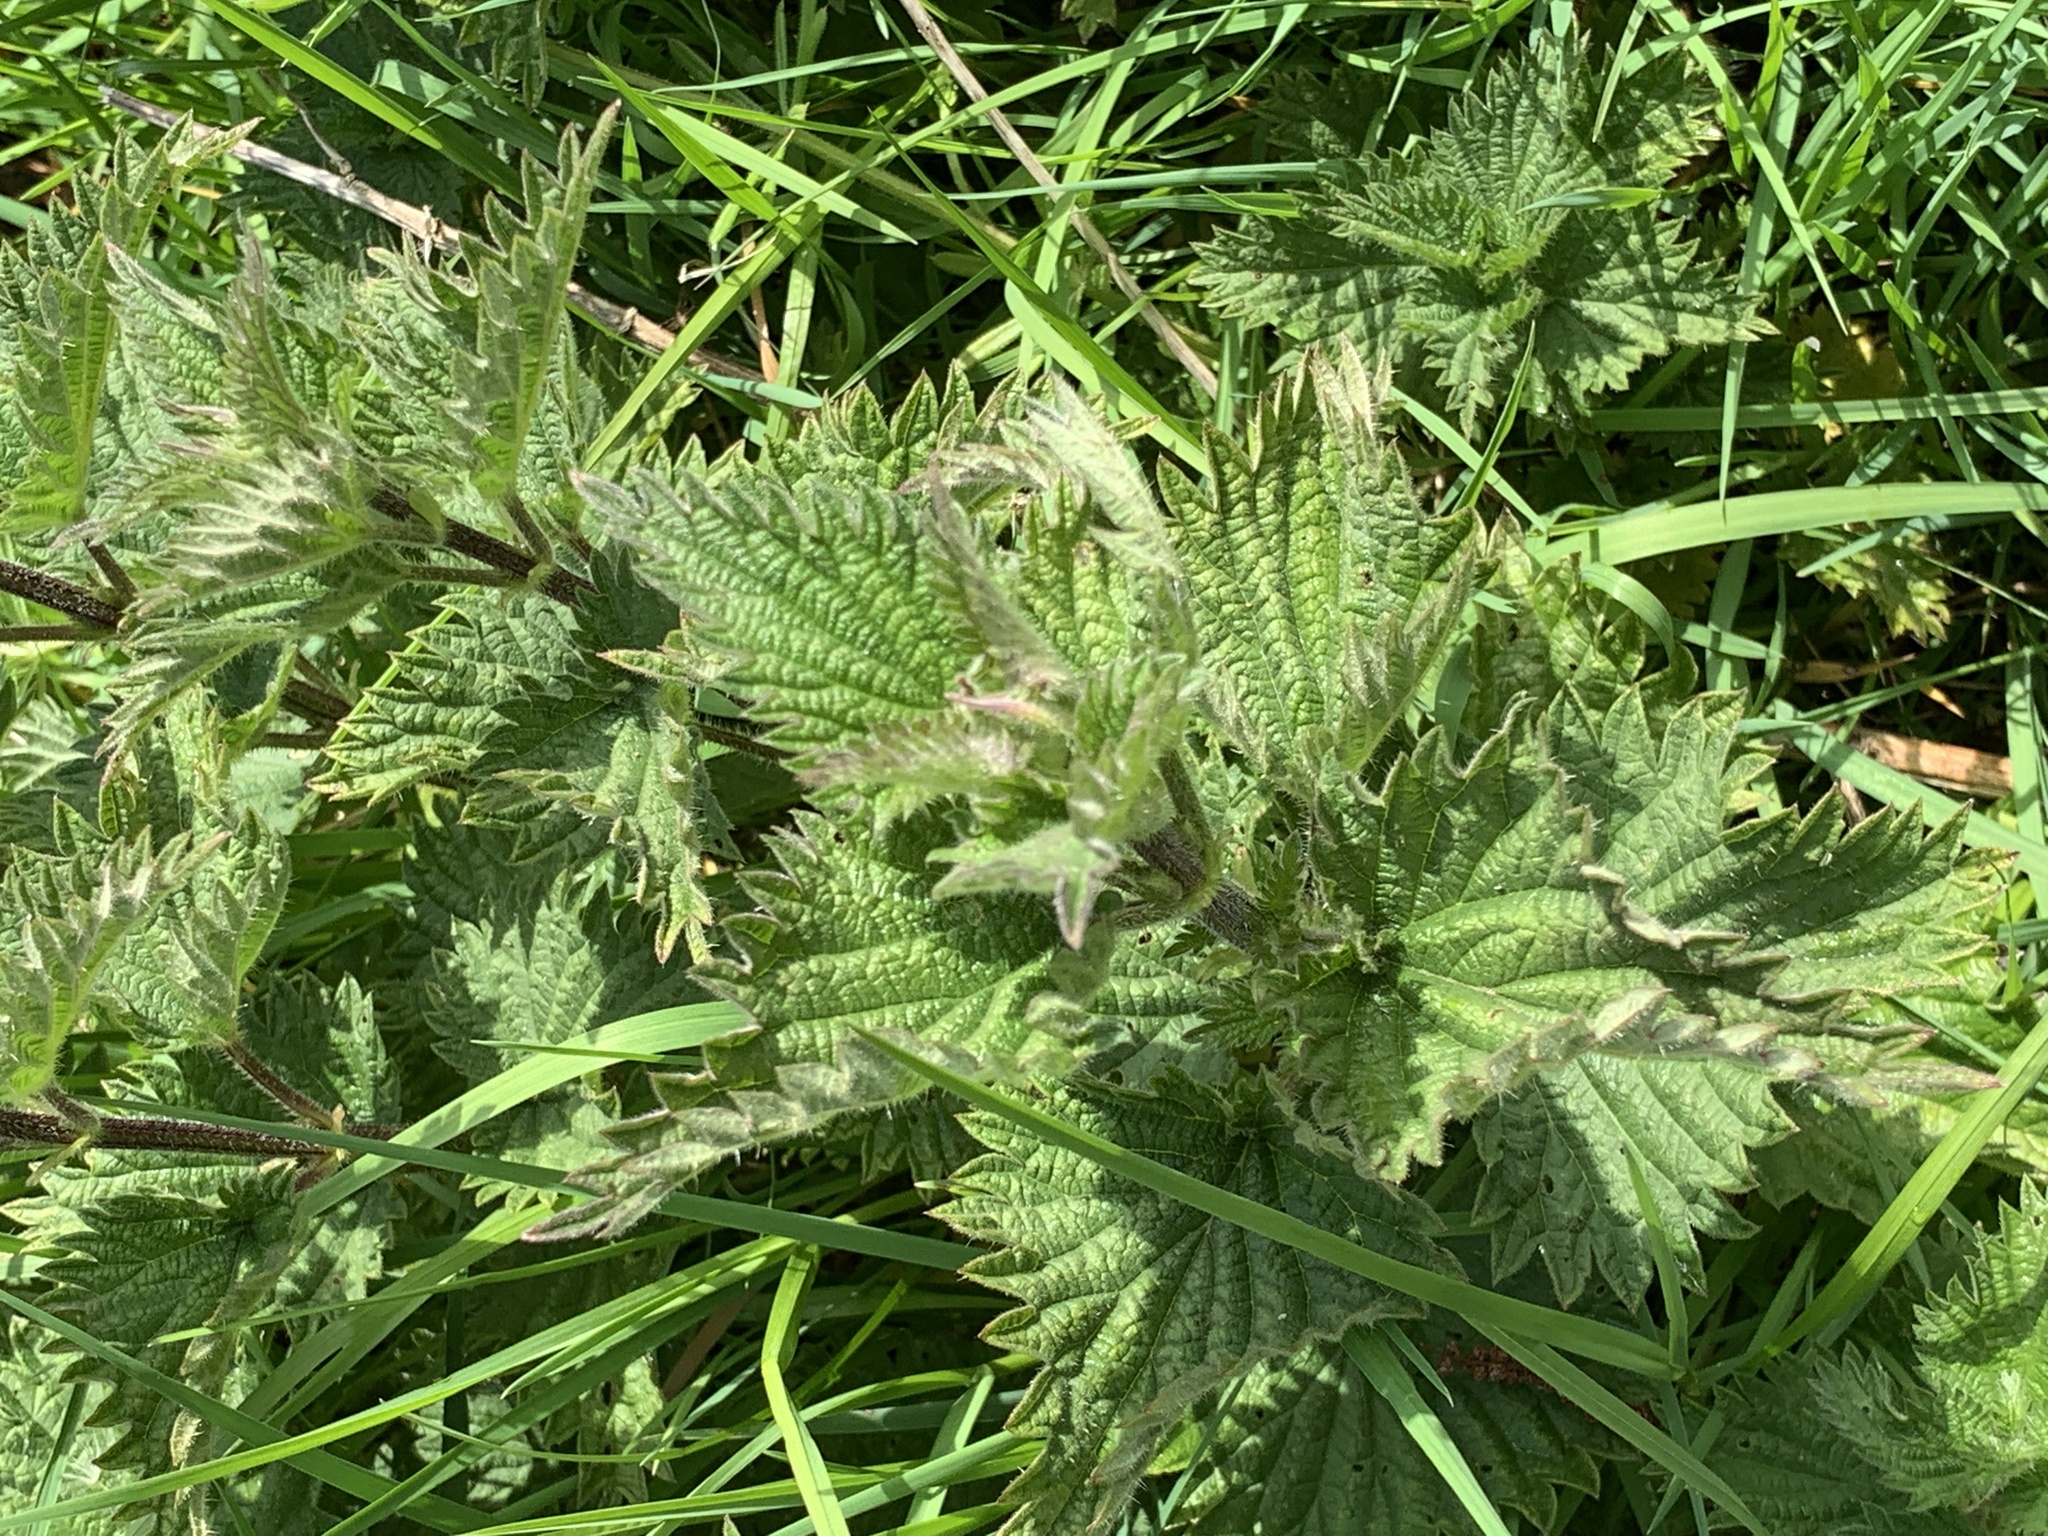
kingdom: Plantae
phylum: Tracheophyta
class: Magnoliopsida
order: Rosales
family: Urticaceae
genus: Urtica
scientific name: Urtica dioica
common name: Common nettle
